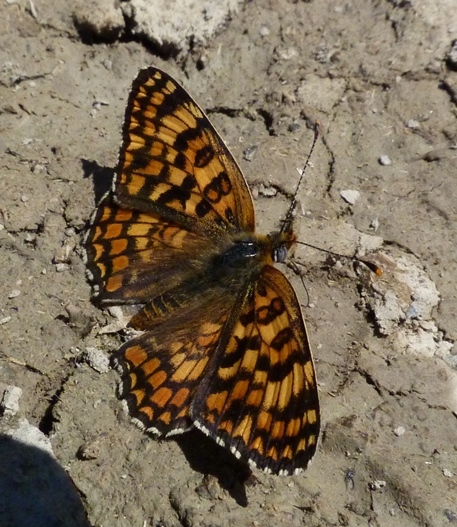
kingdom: Animalia
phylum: Arthropoda
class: Insecta
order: Lepidoptera
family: Nymphalidae
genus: Melitaea
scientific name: Melitaea phoebe
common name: Knapweed fritillary
